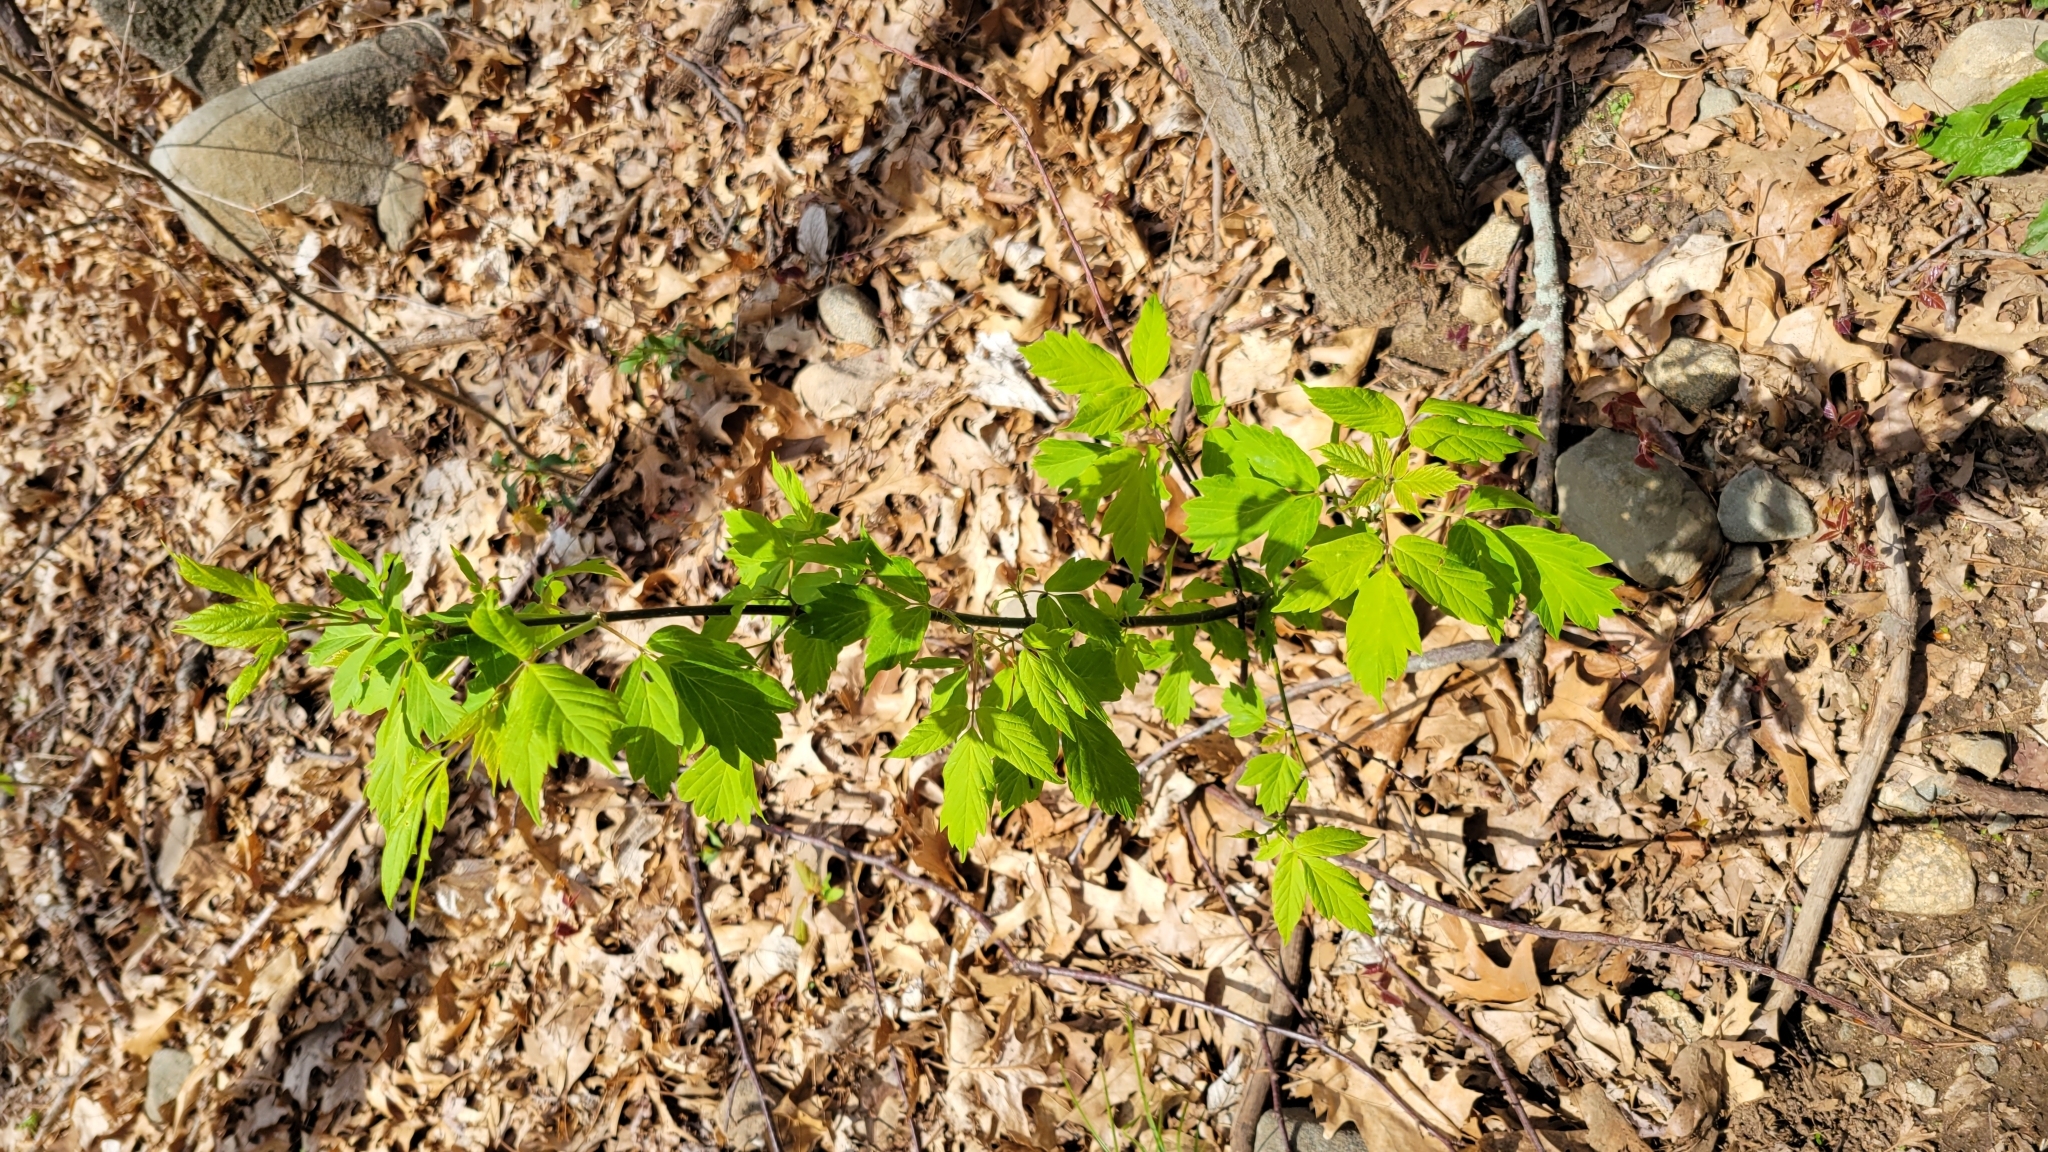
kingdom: Plantae
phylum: Tracheophyta
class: Magnoliopsida
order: Sapindales
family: Sapindaceae
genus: Acer
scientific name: Acer negundo
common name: Ashleaf maple
